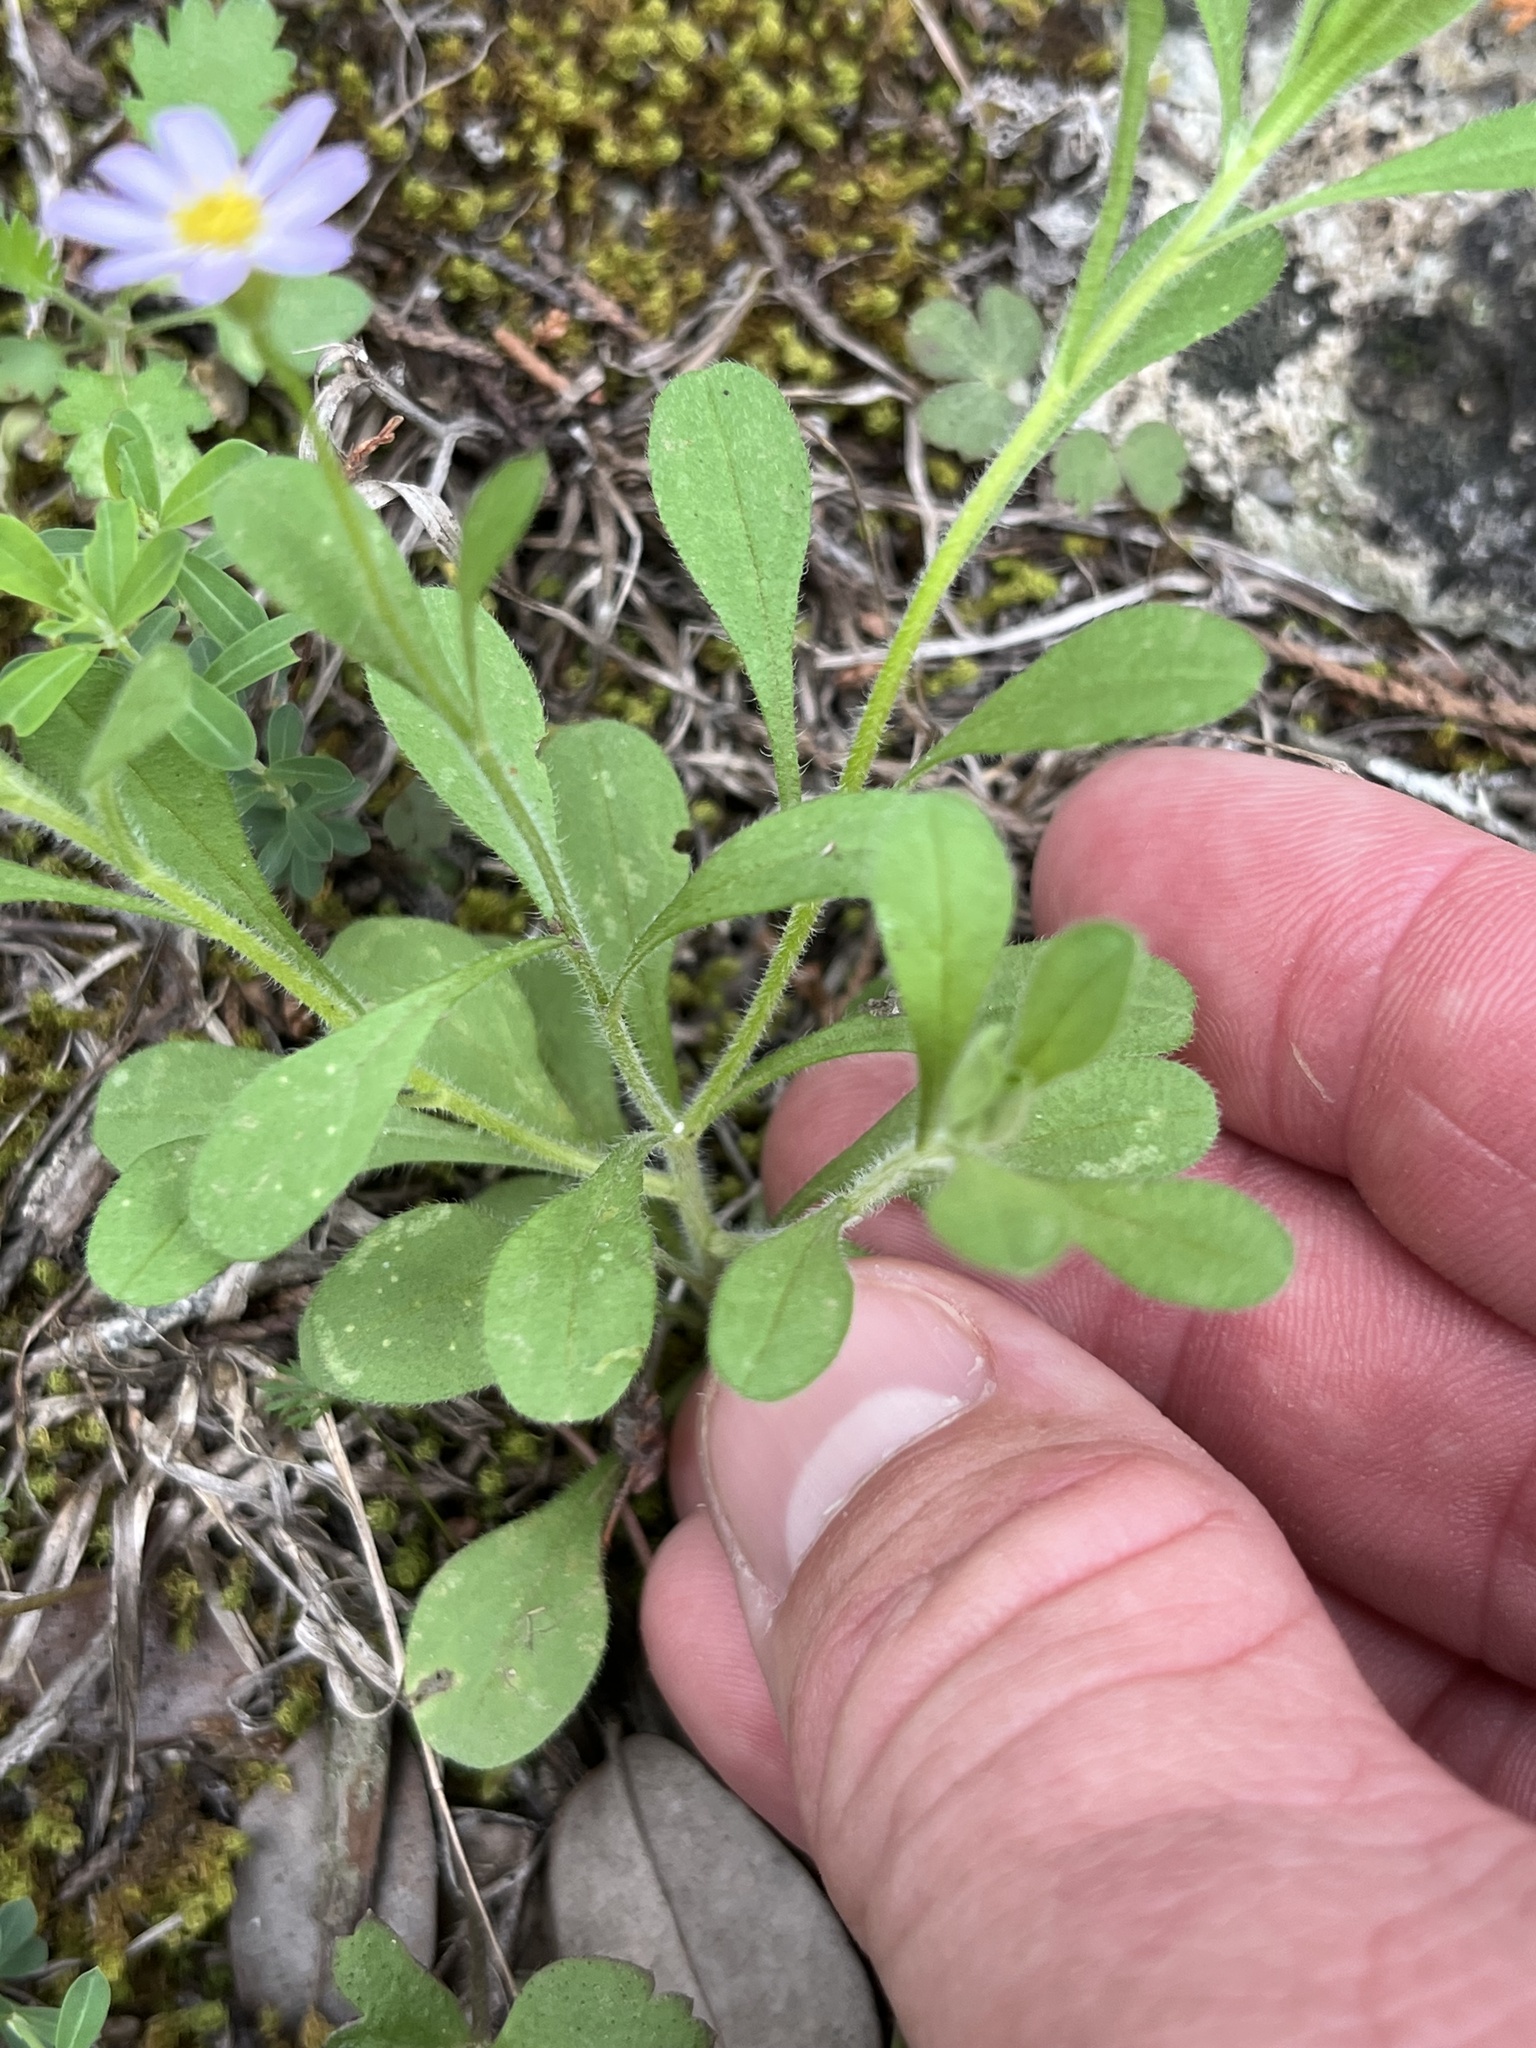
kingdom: Plantae
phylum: Tracheophyta
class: Magnoliopsida
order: Asterales
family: Asteraceae
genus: Chaetopappa
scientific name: Chaetopappa bellidifolia
